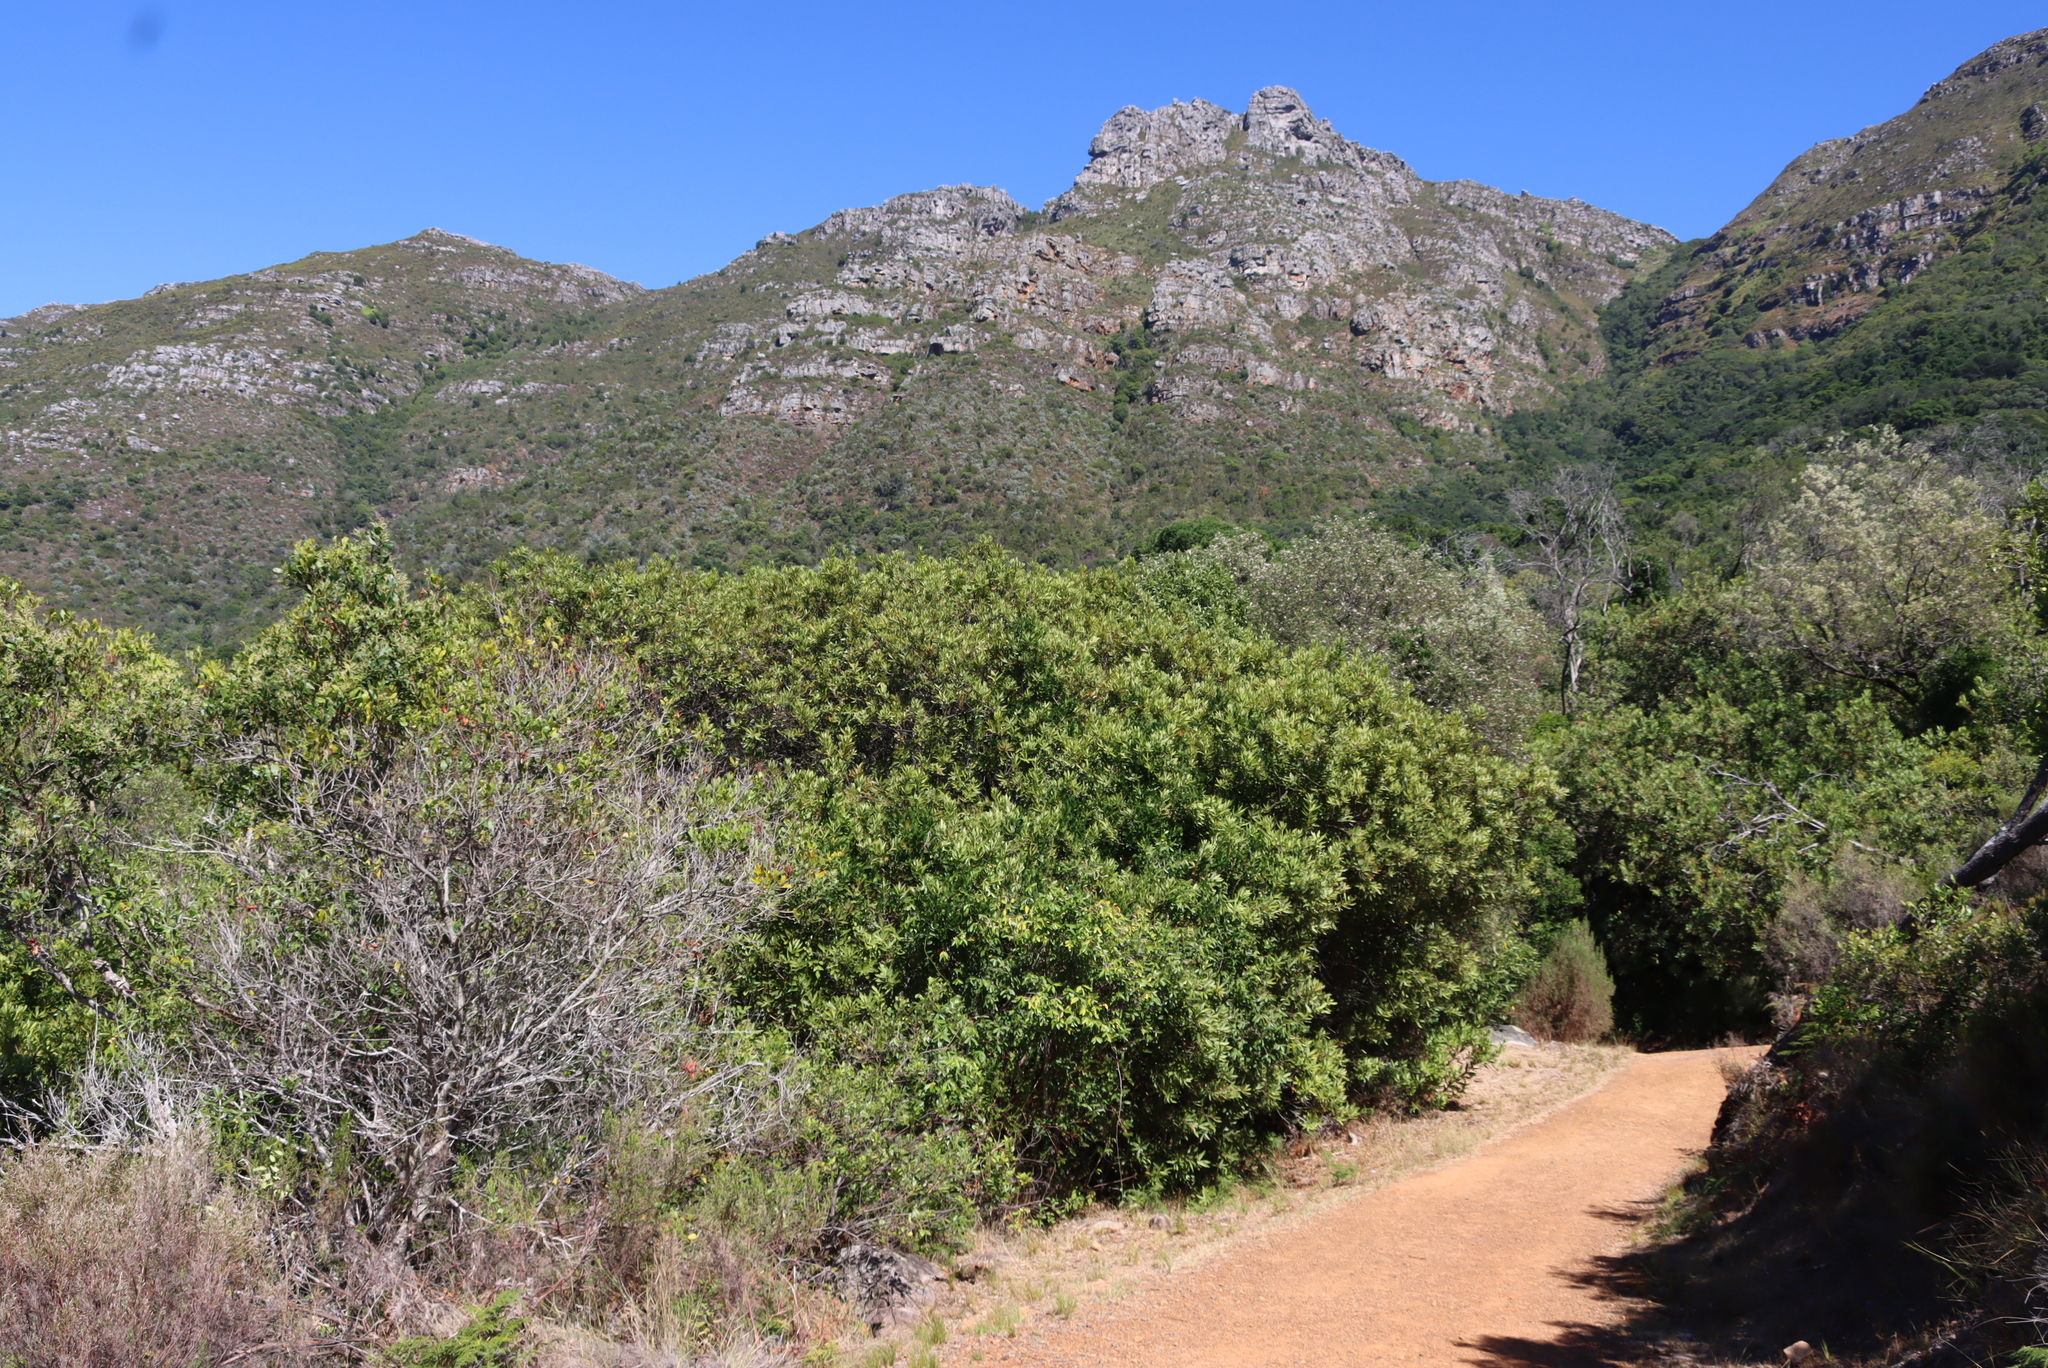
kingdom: Plantae
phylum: Tracheophyta
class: Magnoliopsida
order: Proteales
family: Proteaceae
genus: Brabejum
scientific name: Brabejum stellatifolium
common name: Wild almond
